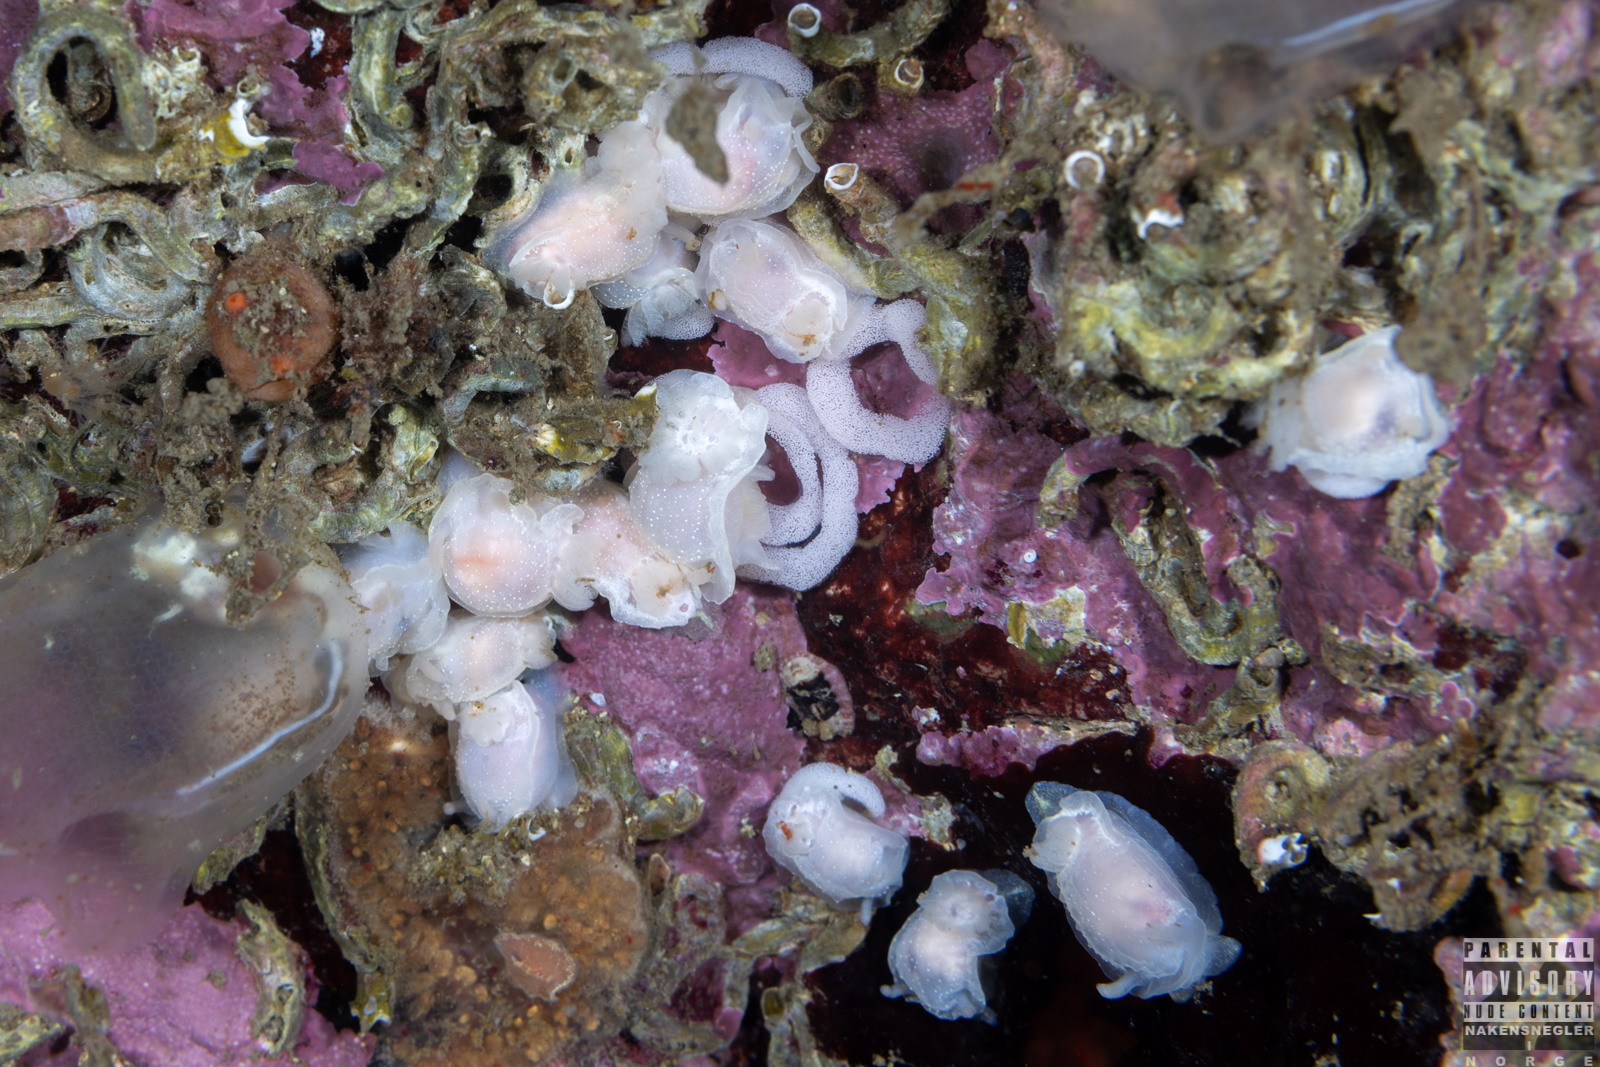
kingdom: Animalia
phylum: Mollusca
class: Gastropoda
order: Nudibranchia
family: Goniodorididae
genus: Okenia
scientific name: Okenia
